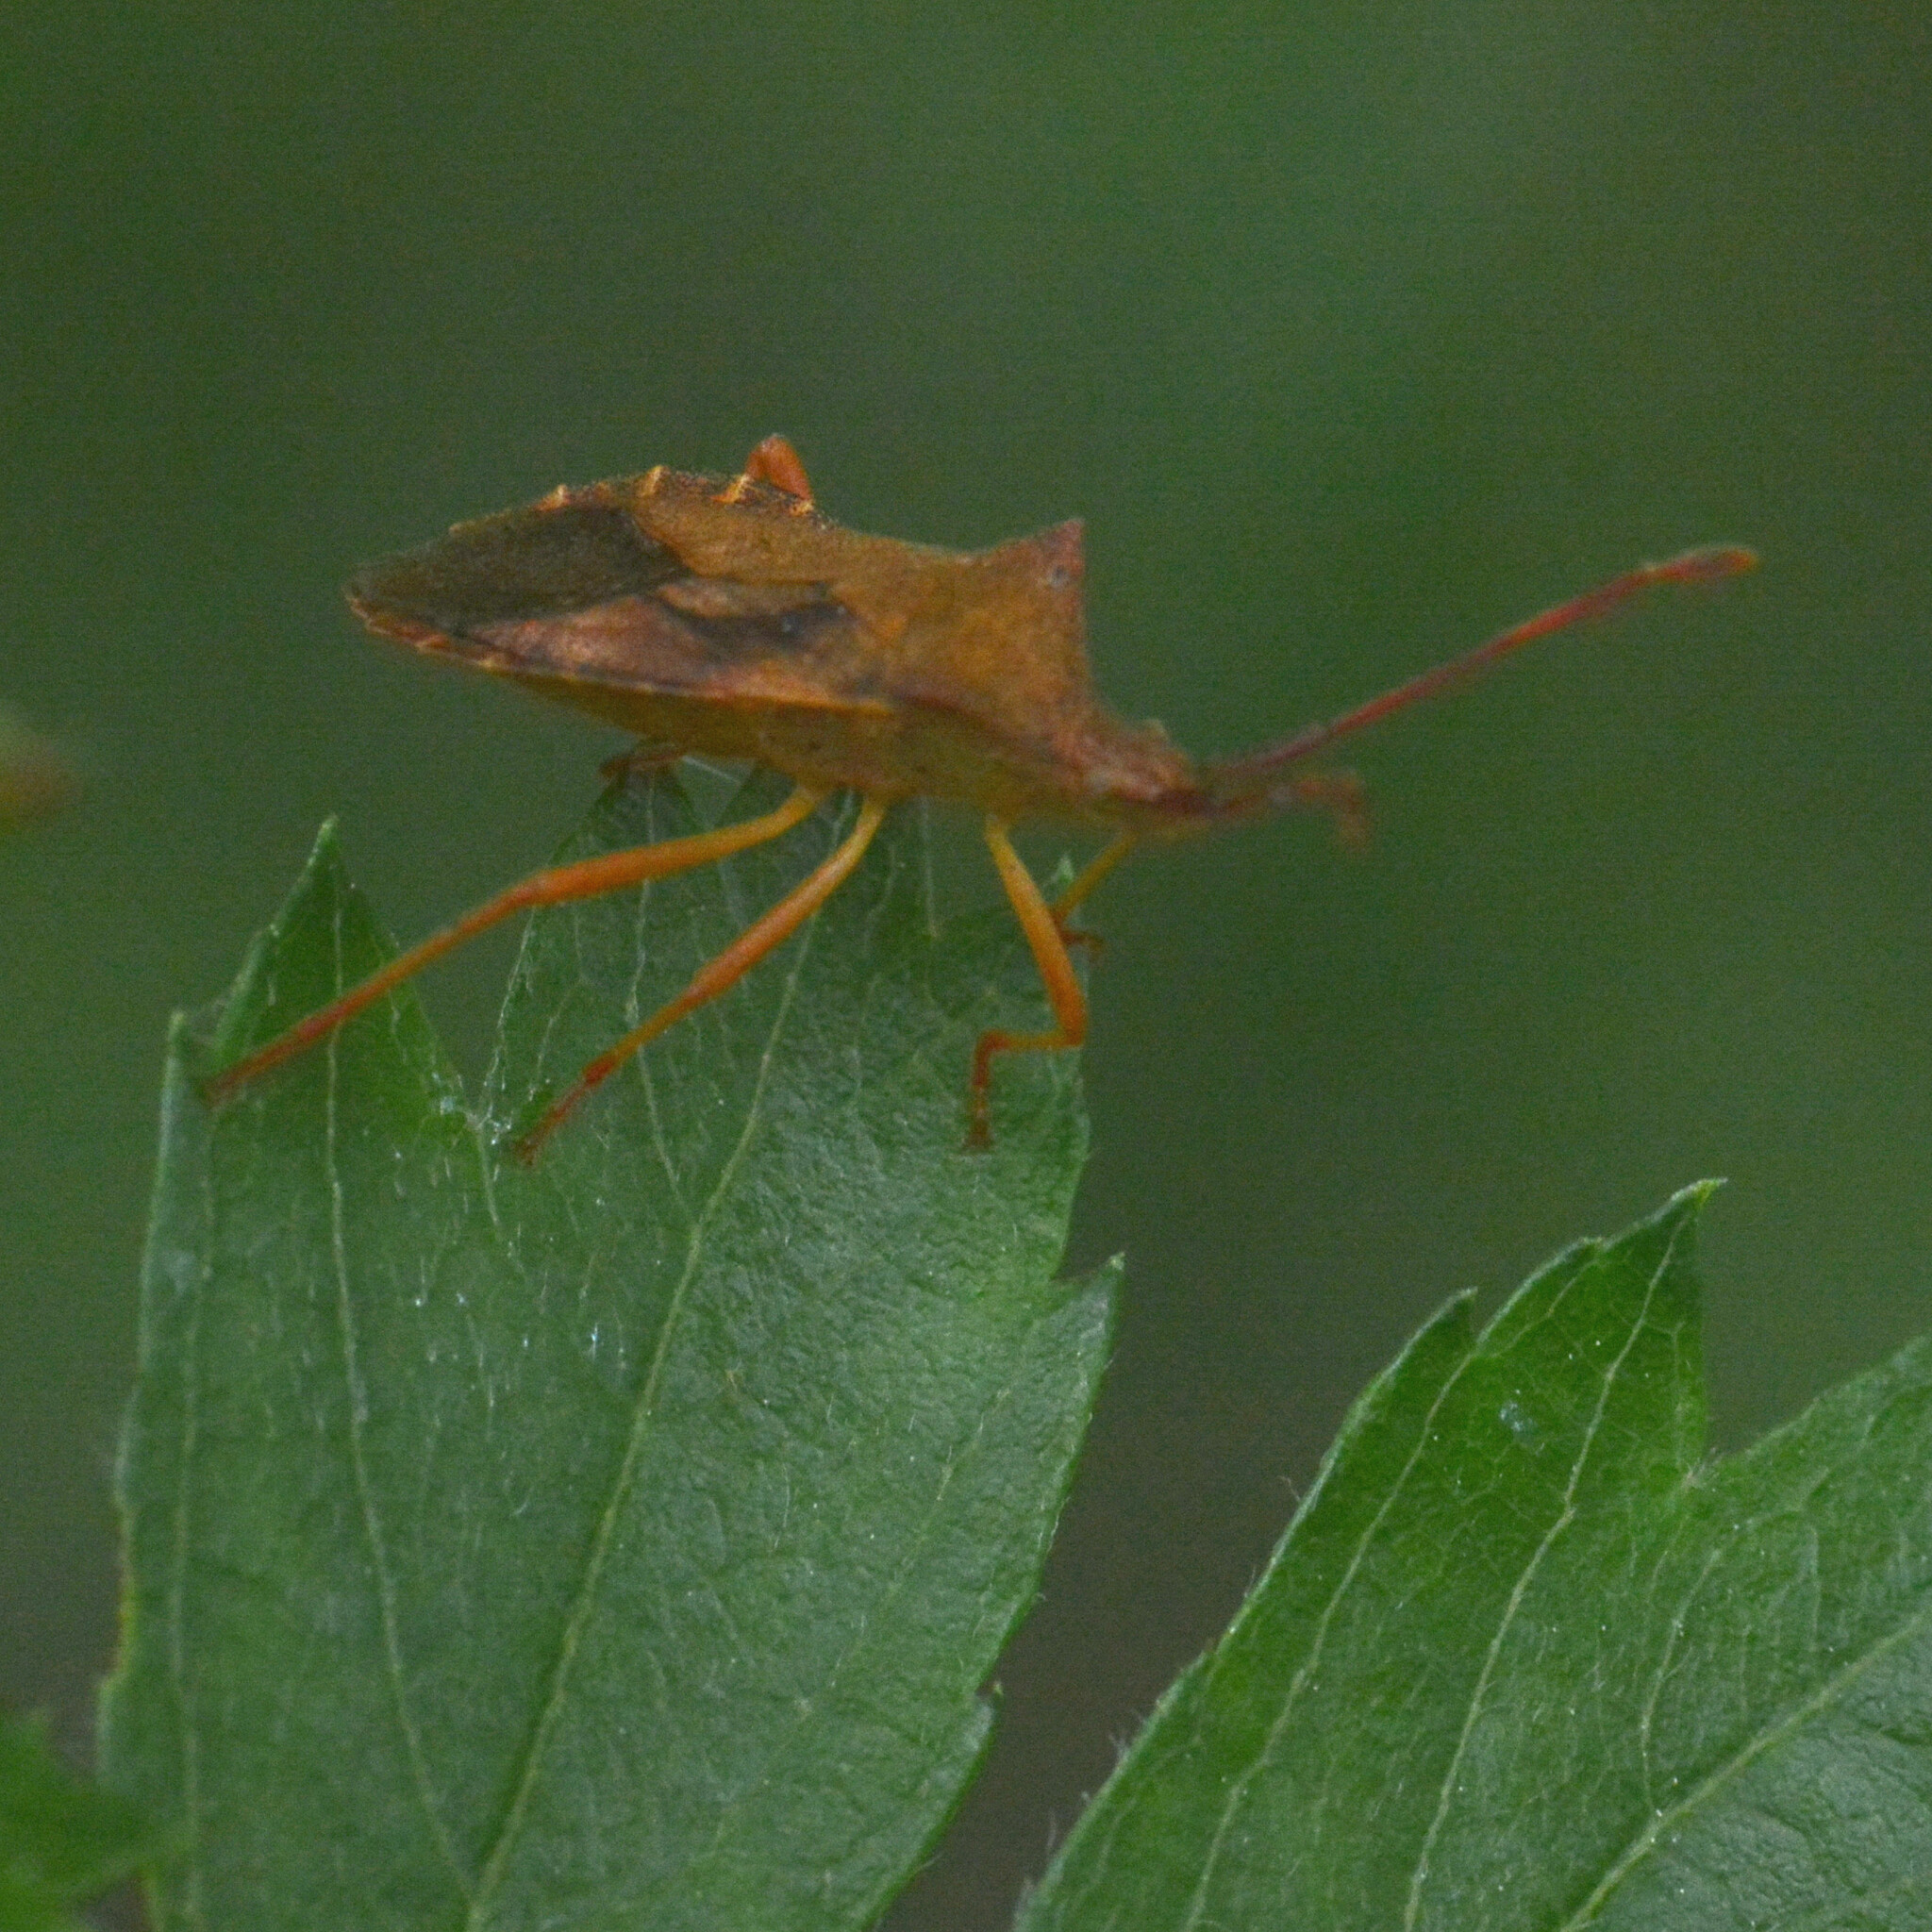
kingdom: Animalia
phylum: Arthropoda
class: Insecta
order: Hemiptera
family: Coreidae
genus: Gonocerus
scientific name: Gonocerus acuteangulatus
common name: Box bug
